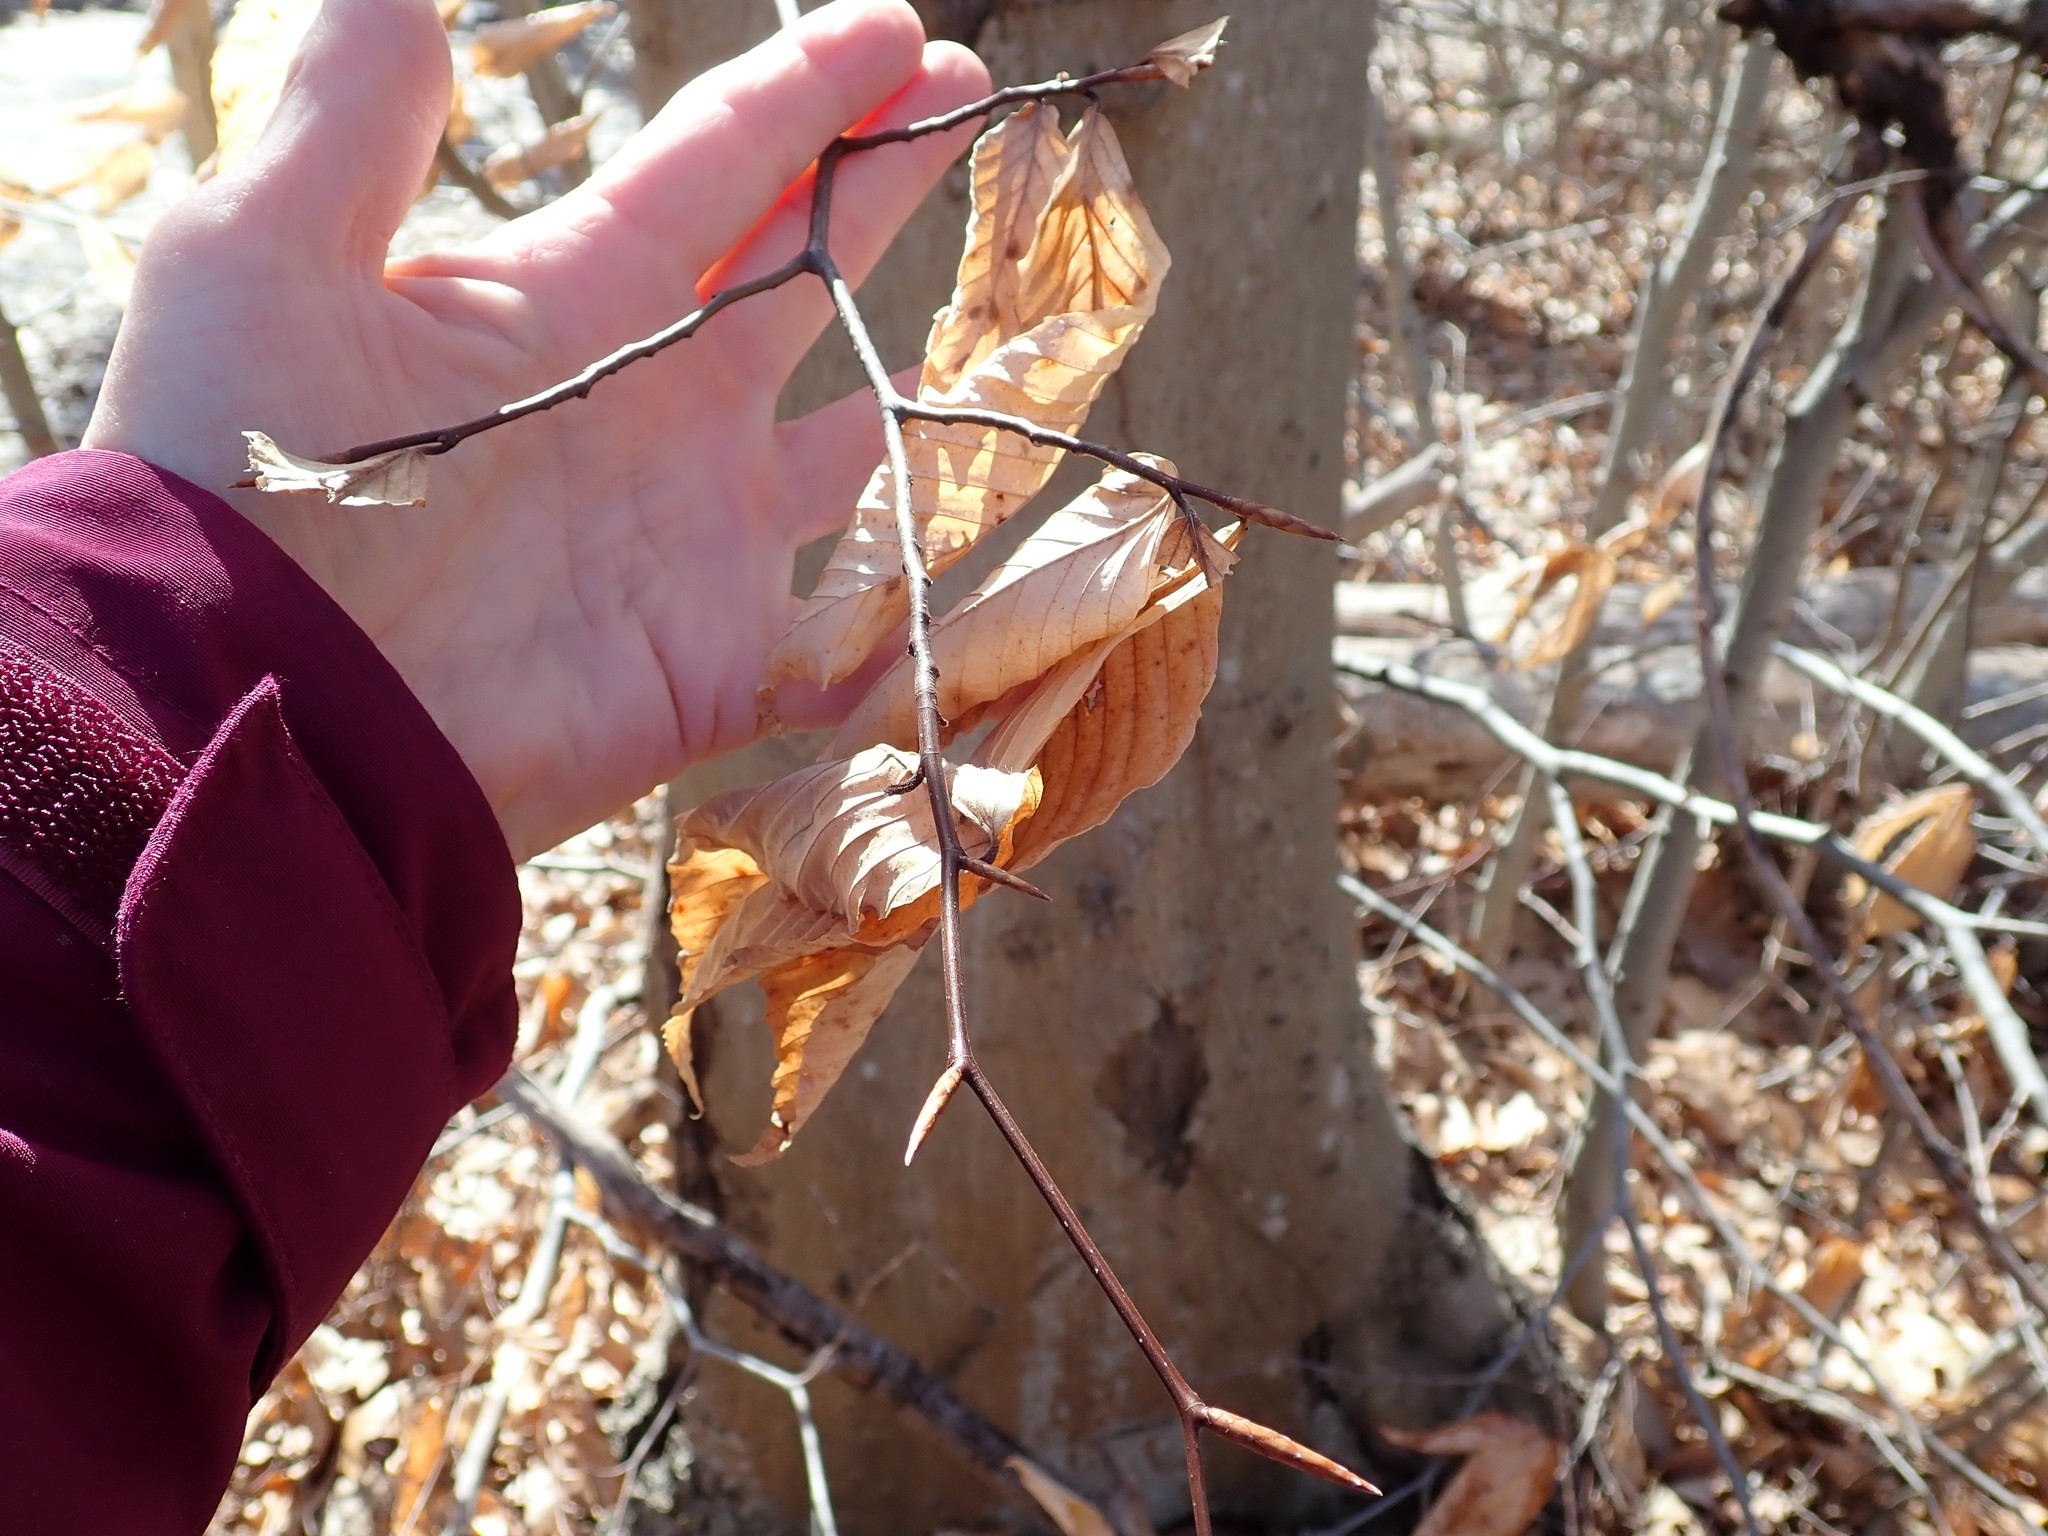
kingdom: Plantae
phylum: Tracheophyta
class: Magnoliopsida
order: Fagales
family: Fagaceae
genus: Fagus
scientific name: Fagus grandifolia
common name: American beech
